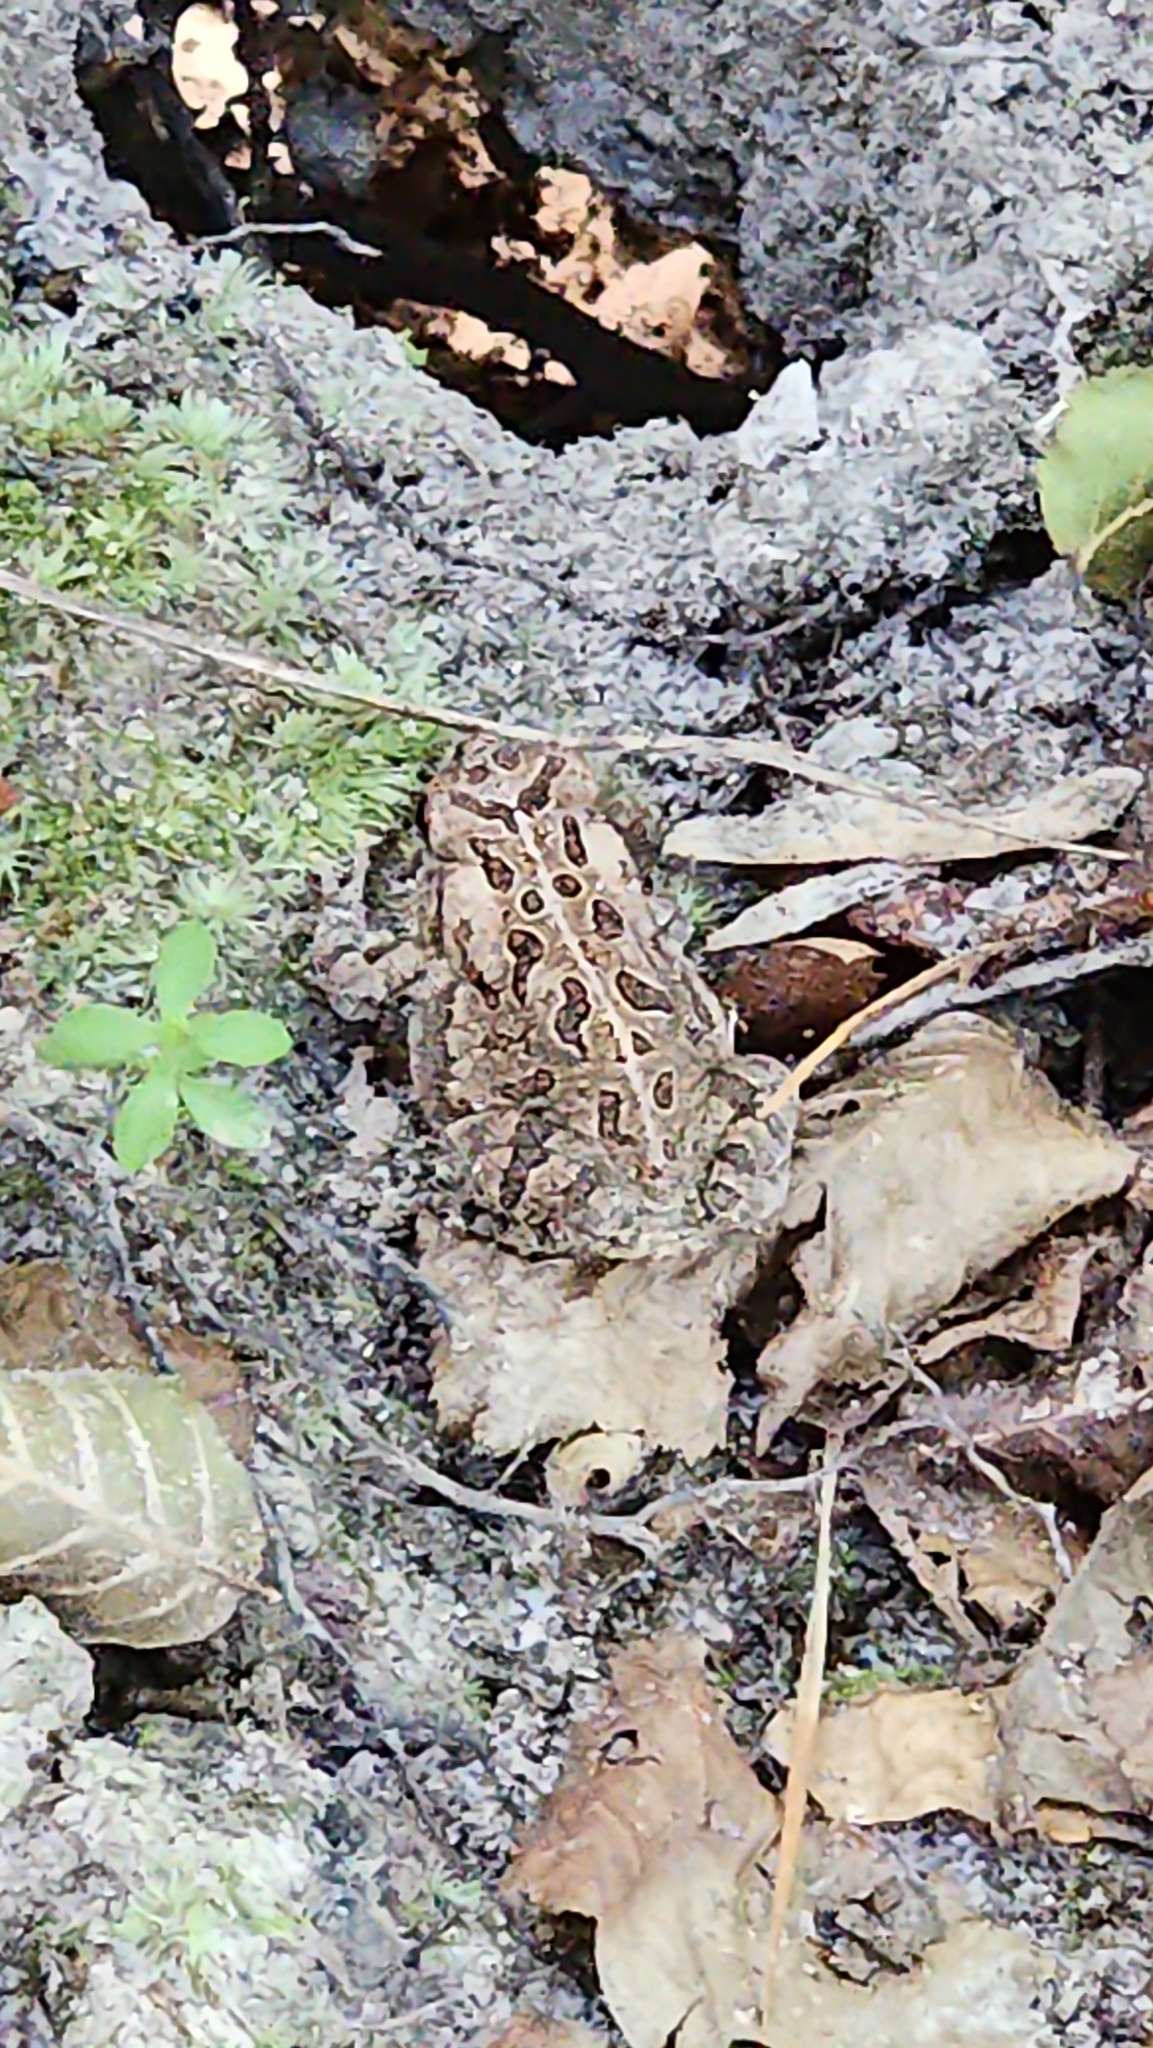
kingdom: Animalia
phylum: Chordata
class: Amphibia
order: Anura
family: Bufonidae
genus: Anaxyrus
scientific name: Anaxyrus fowleri
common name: Fowler's toad
